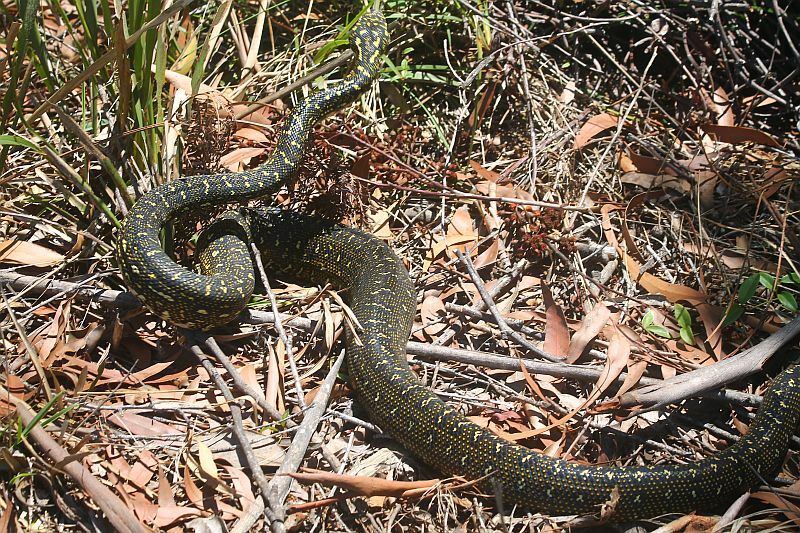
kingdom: Animalia
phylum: Chordata
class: Squamata
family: Pythonidae
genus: Morelia
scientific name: Morelia spilota
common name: Carpet python
